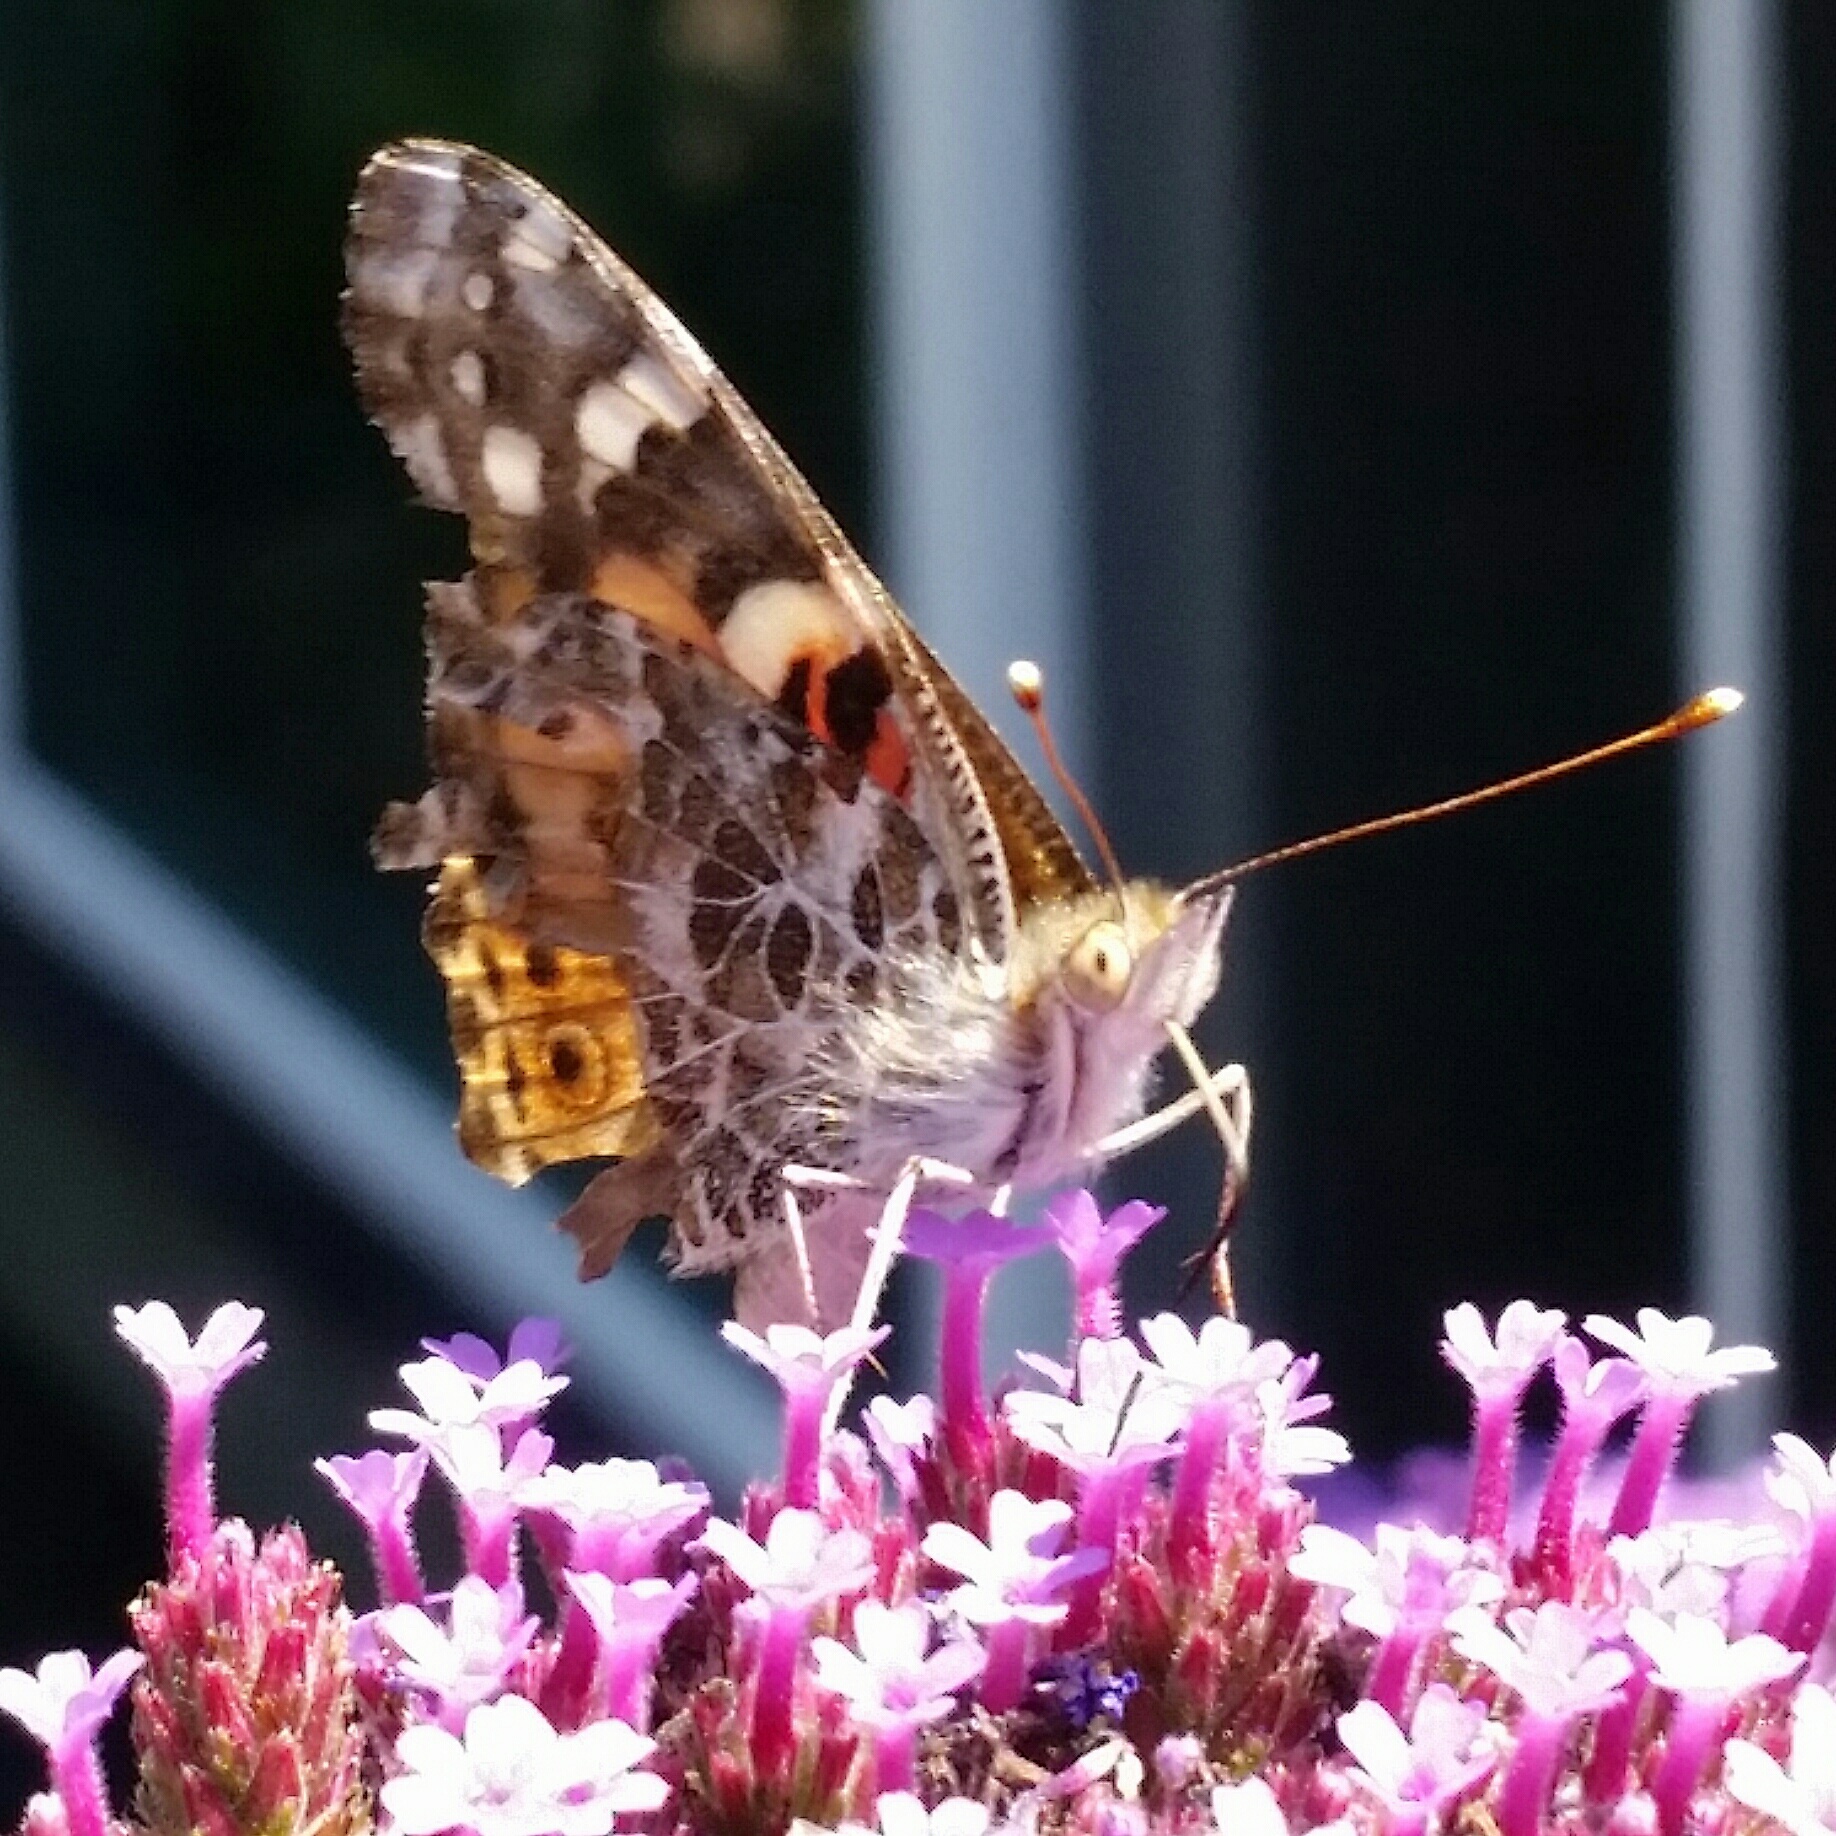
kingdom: Animalia
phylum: Arthropoda
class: Insecta
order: Lepidoptera
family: Nymphalidae
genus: Vanessa
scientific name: Vanessa cardui
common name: Painted lady
